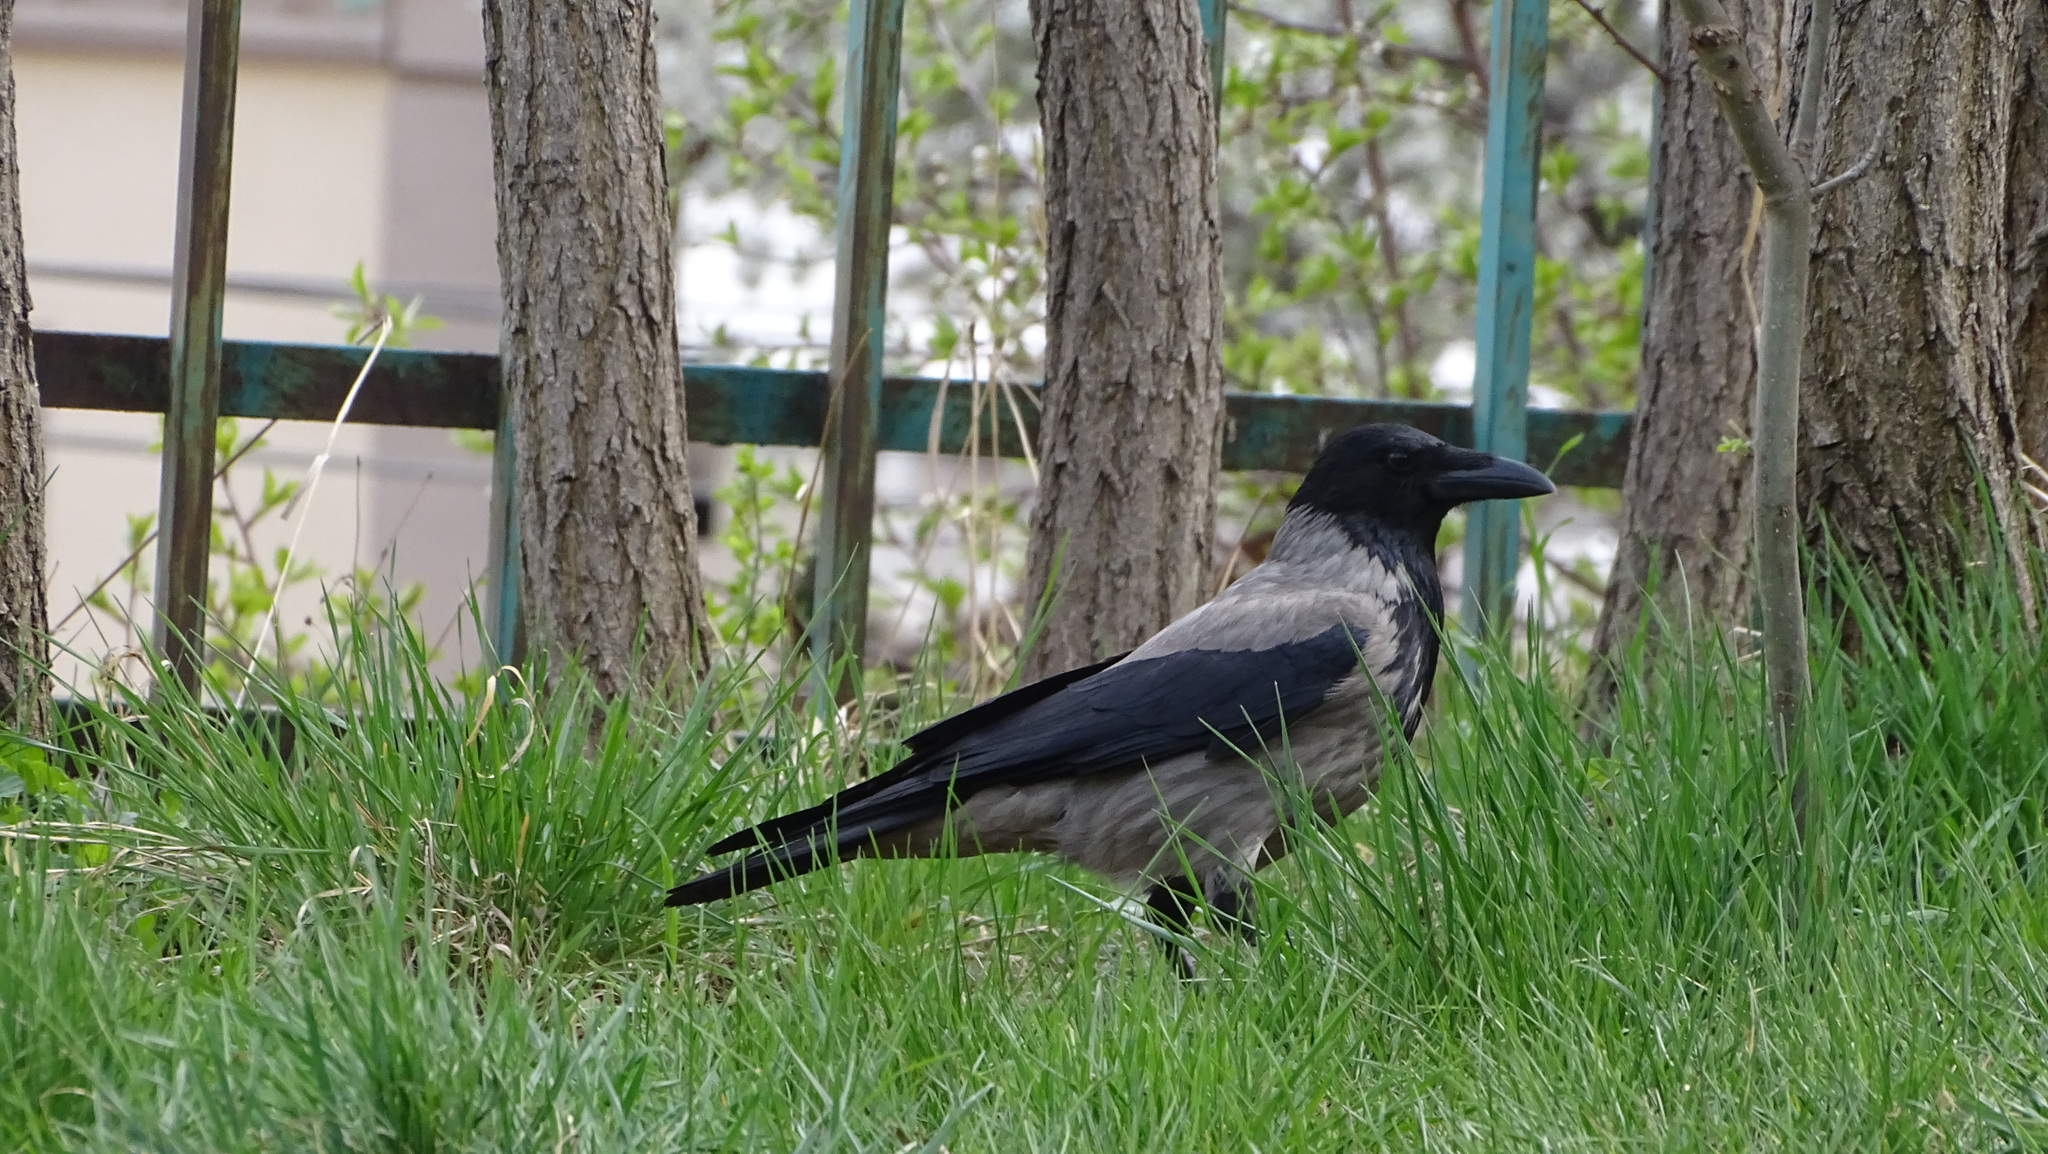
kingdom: Animalia
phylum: Chordata
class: Aves
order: Passeriformes
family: Corvidae
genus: Corvus
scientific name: Corvus cornix
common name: Hooded crow
